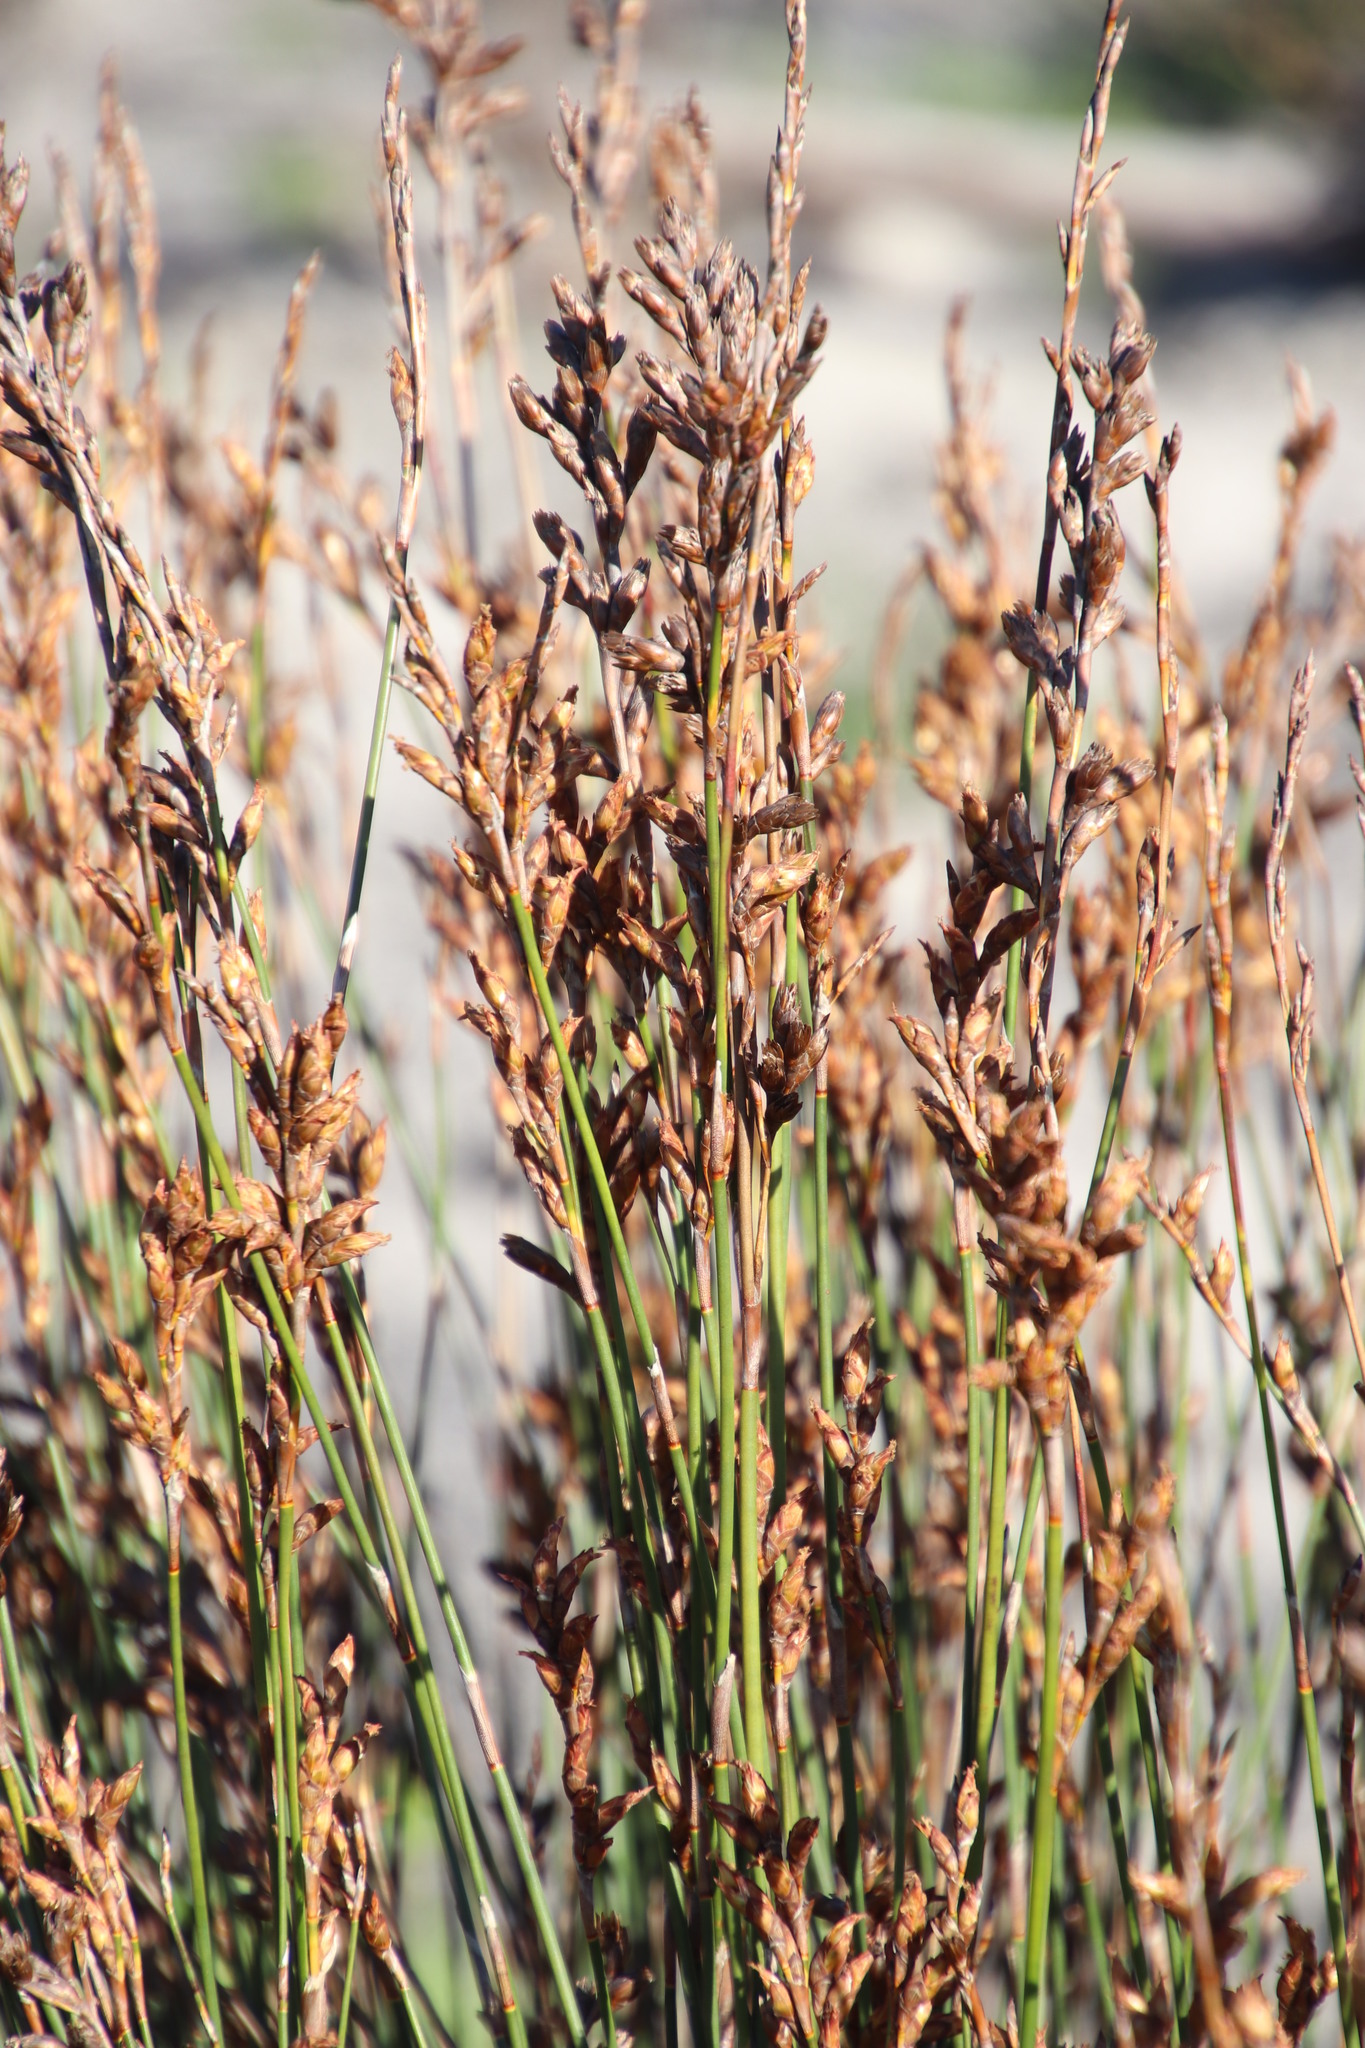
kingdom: Plantae
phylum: Tracheophyta
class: Liliopsida
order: Poales
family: Restionaceae
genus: Restio
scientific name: Restio bifurcus
